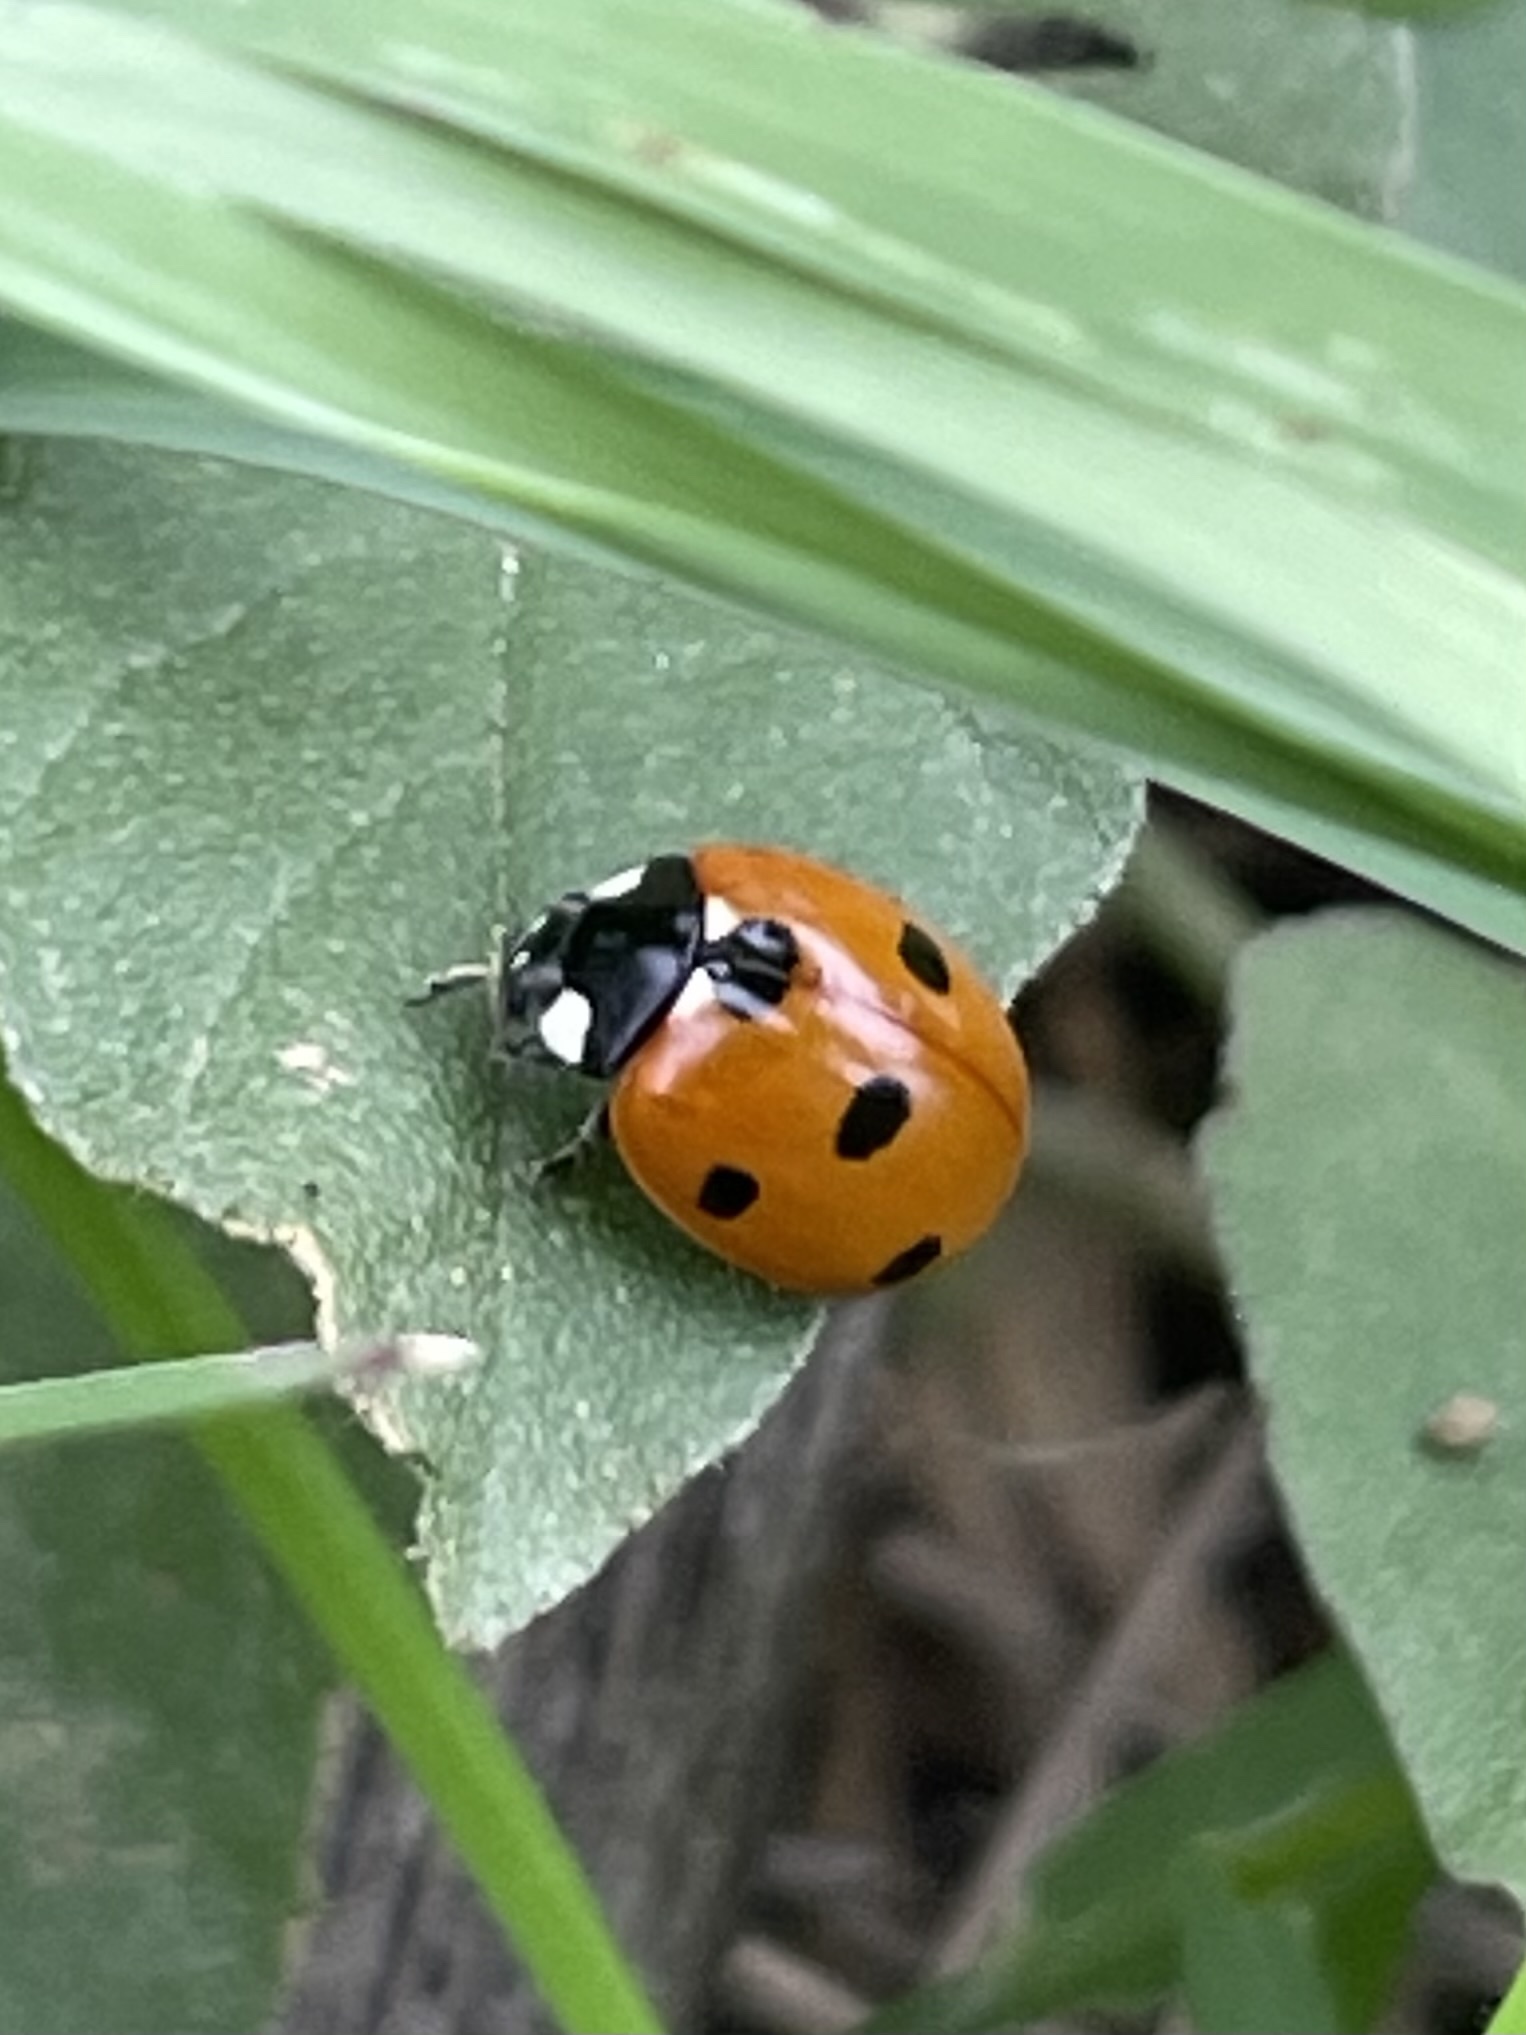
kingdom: Animalia
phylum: Arthropoda
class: Insecta
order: Coleoptera
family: Coccinellidae
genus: Coccinella
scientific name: Coccinella septempunctata
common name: Sevenspotted lady beetle
